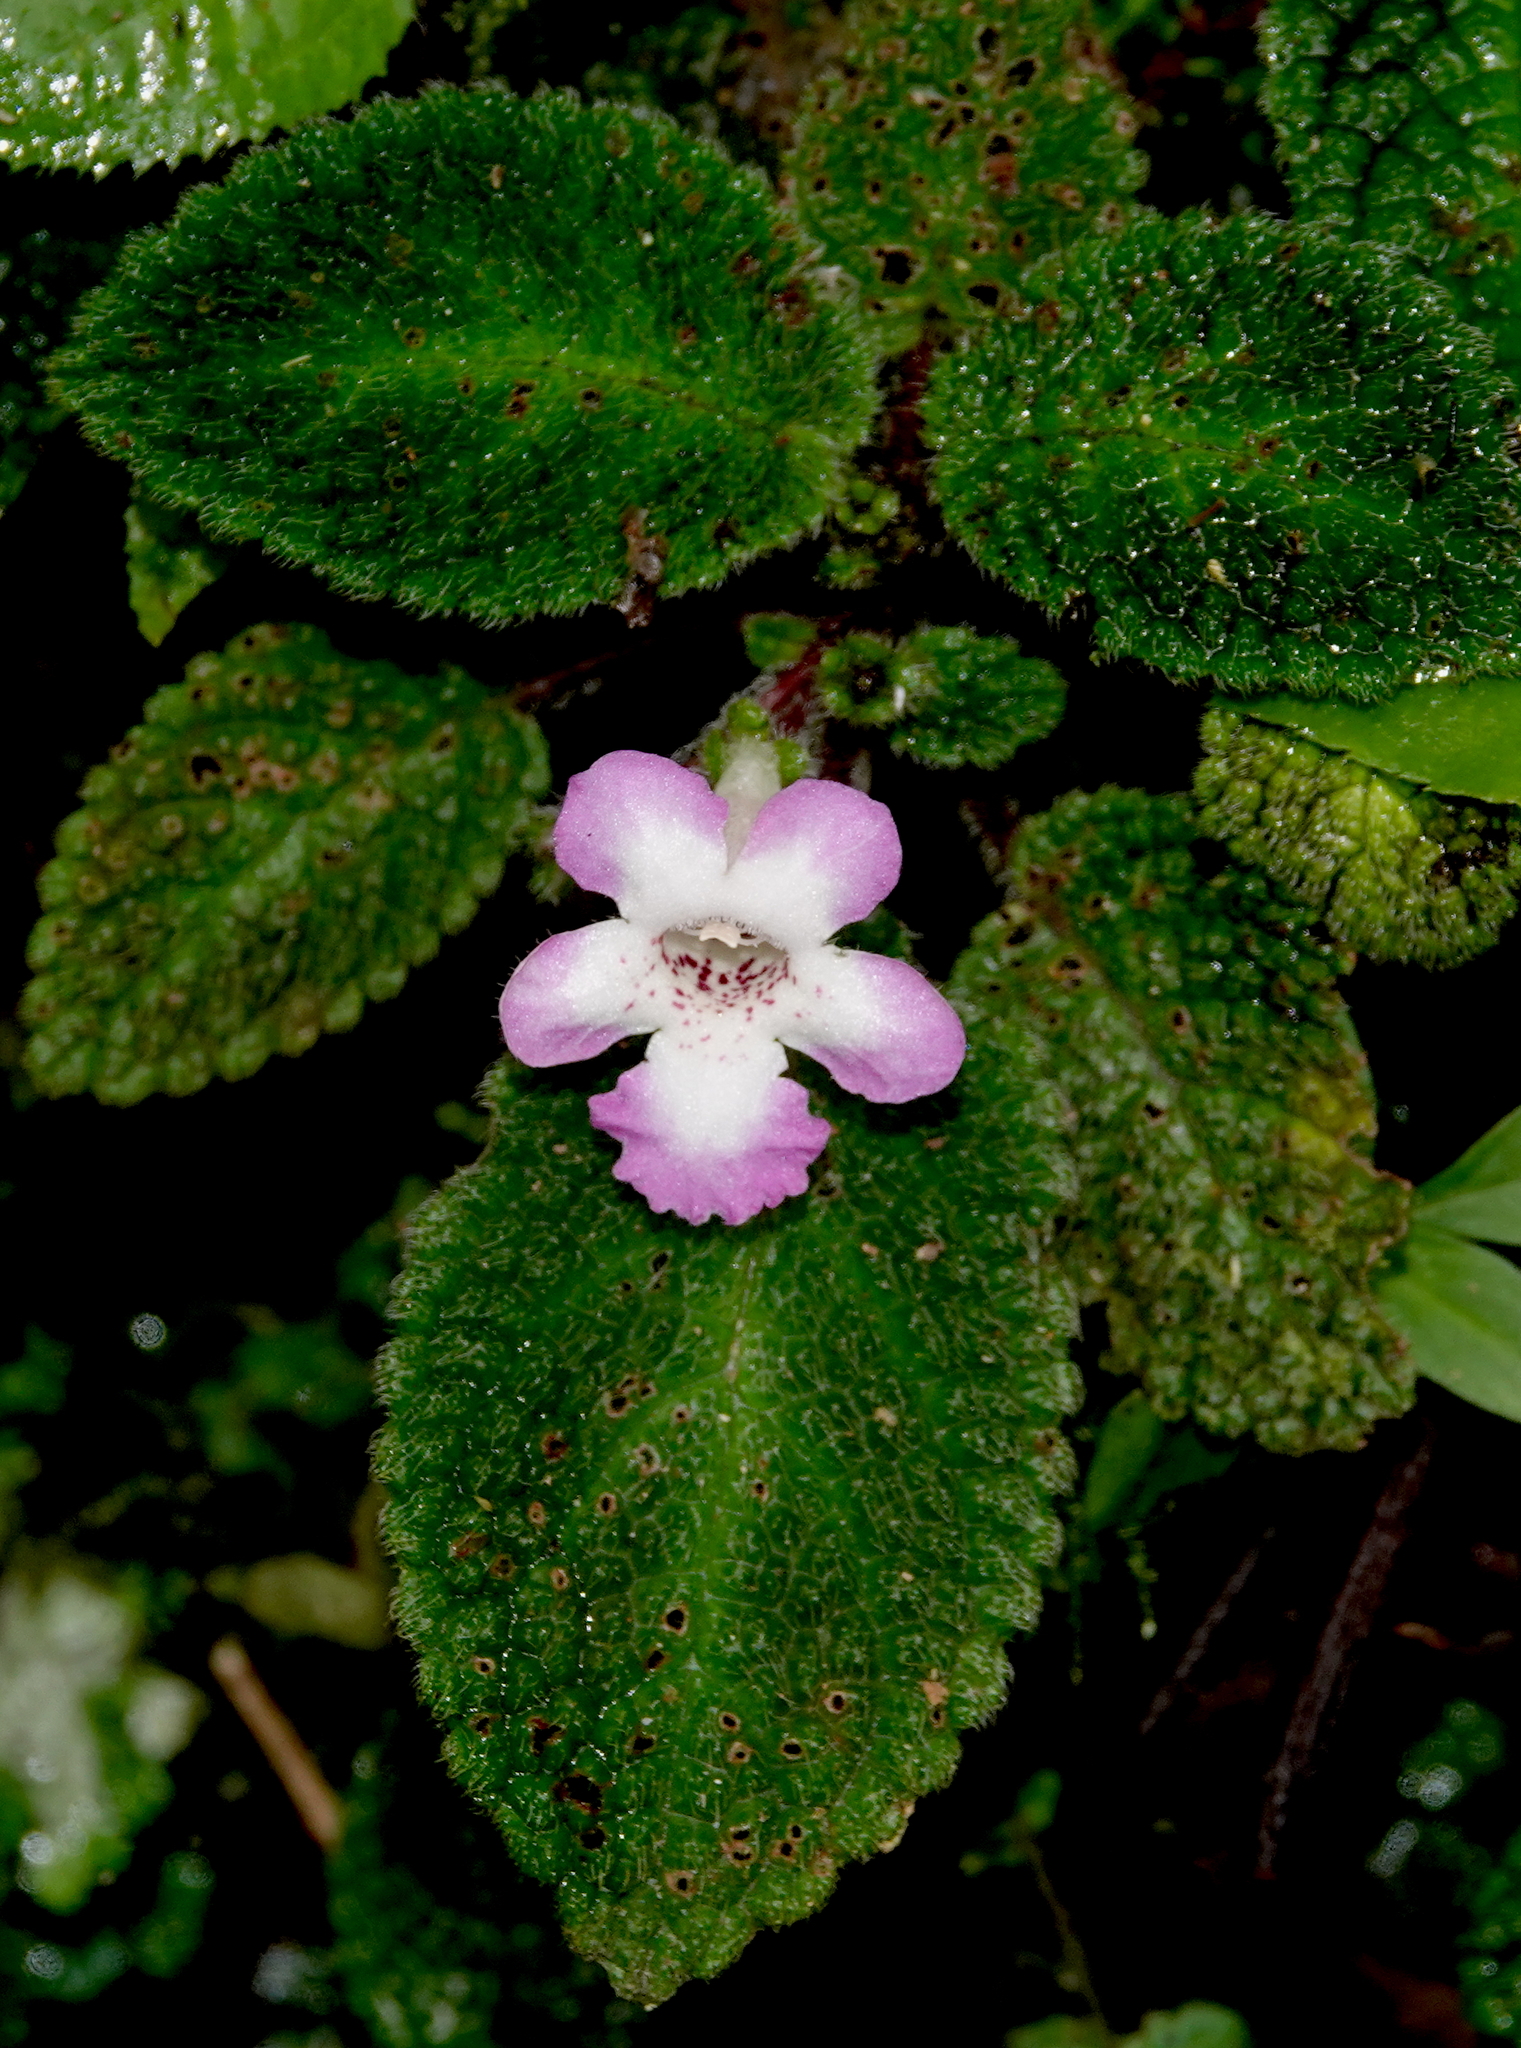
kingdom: Plantae
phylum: Tracheophyta
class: Magnoliopsida
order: Lamiales
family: Gesneriaceae
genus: Nautilocalyx
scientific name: Nautilocalyx bicolor
